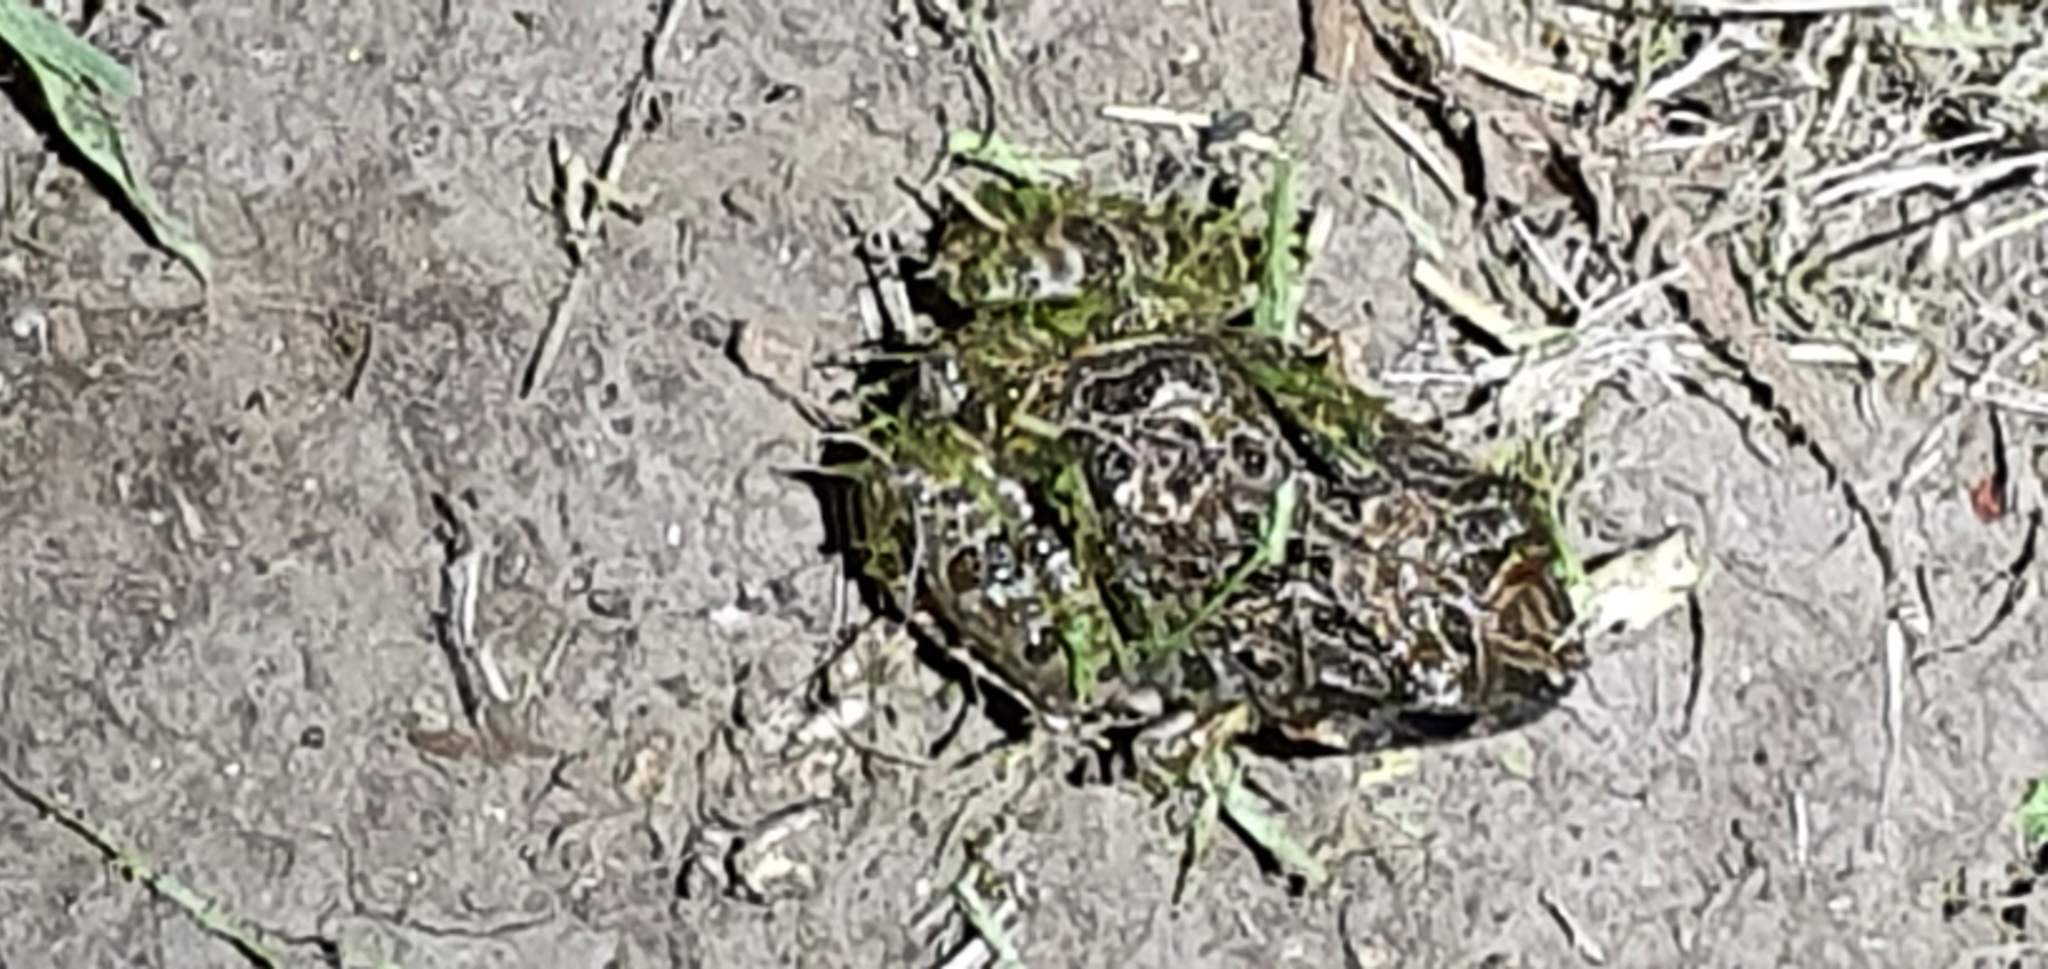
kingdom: Animalia
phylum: Chordata
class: Amphibia
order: Anura
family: Limnodynastidae
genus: Platyplectrum
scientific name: Platyplectrum ornatum
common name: Ornate burrowing frog
